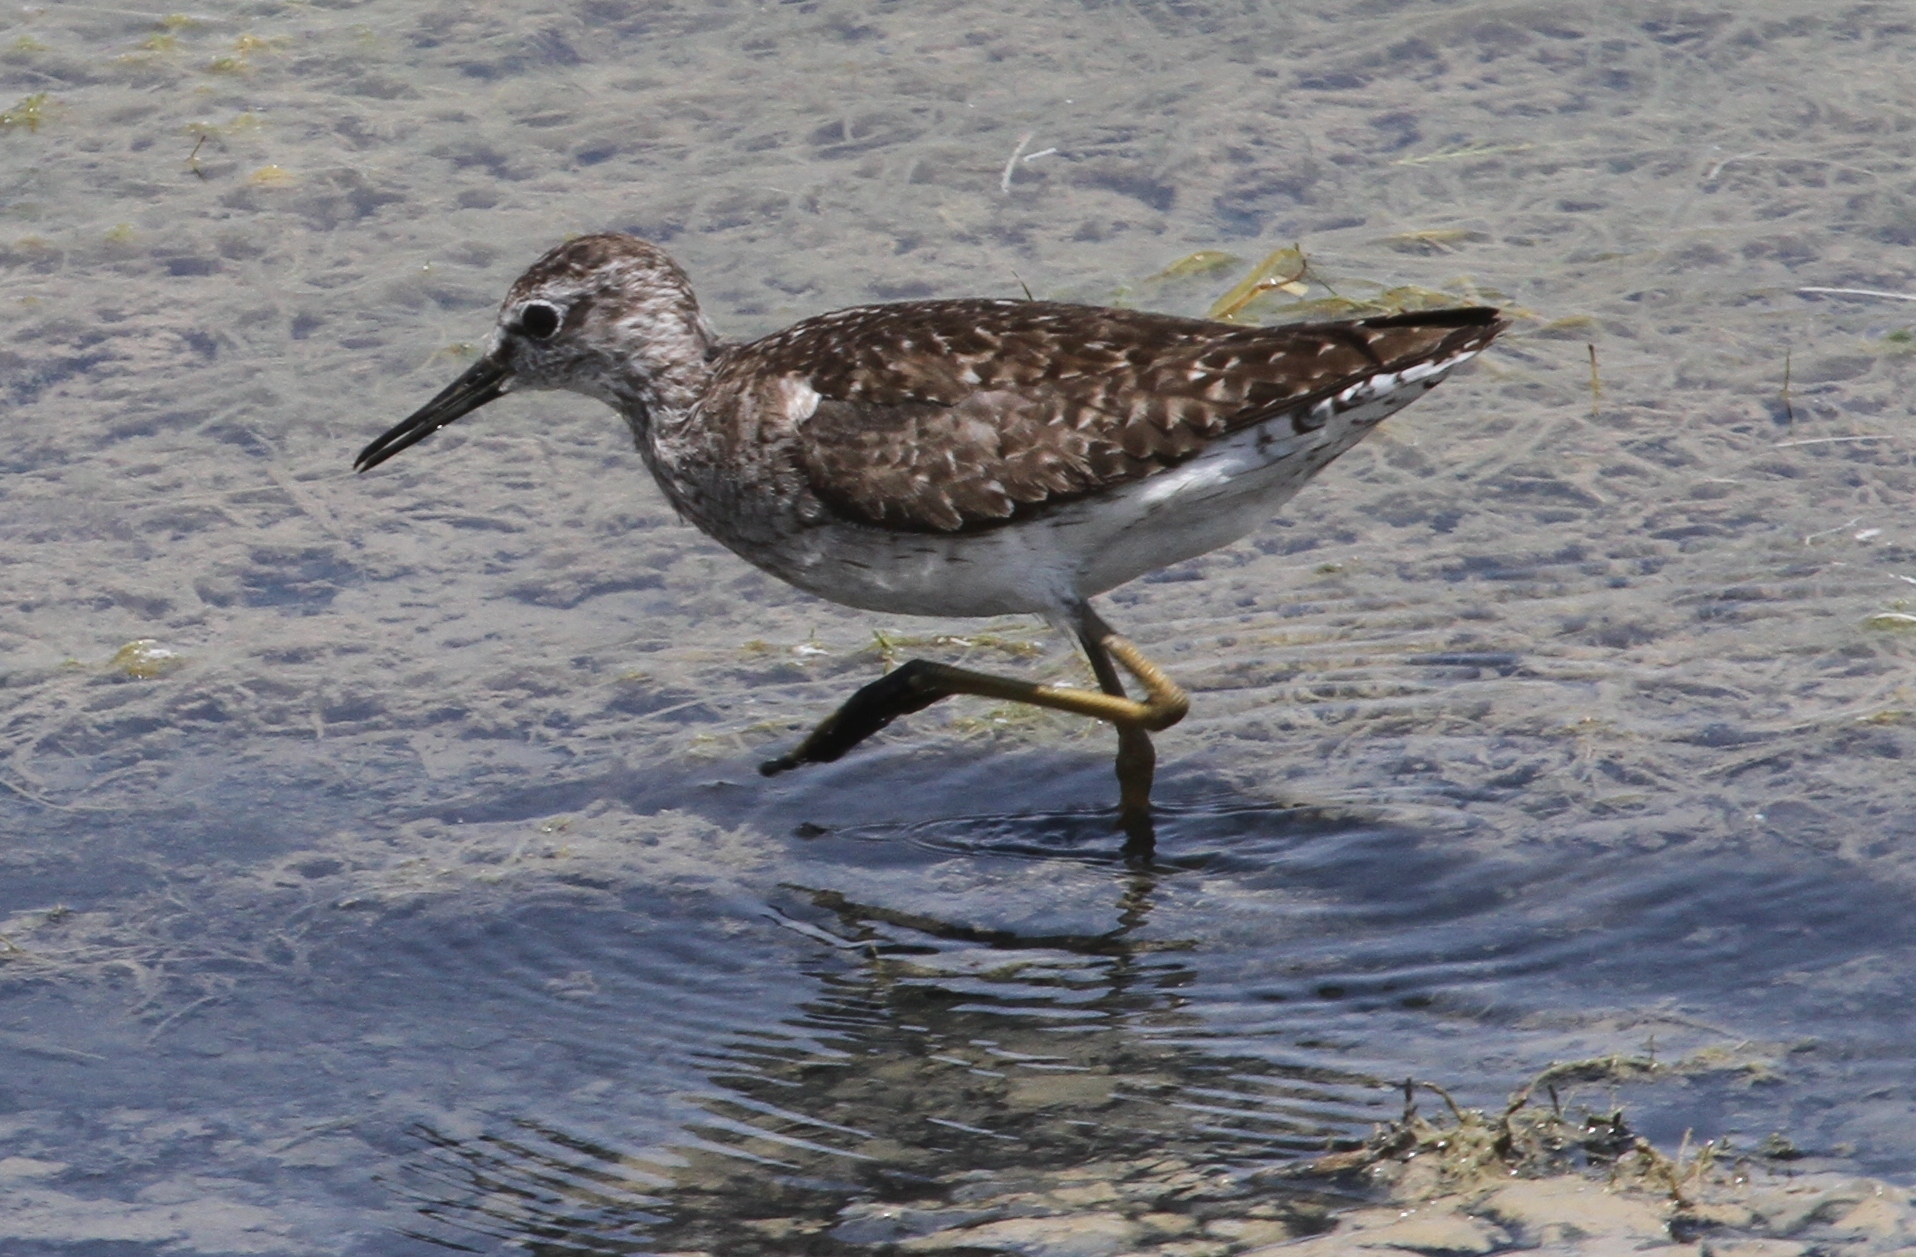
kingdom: Animalia
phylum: Chordata
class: Aves
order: Charadriiformes
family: Scolopacidae
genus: Tringa
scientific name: Tringa glareola
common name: Wood sandpiper
